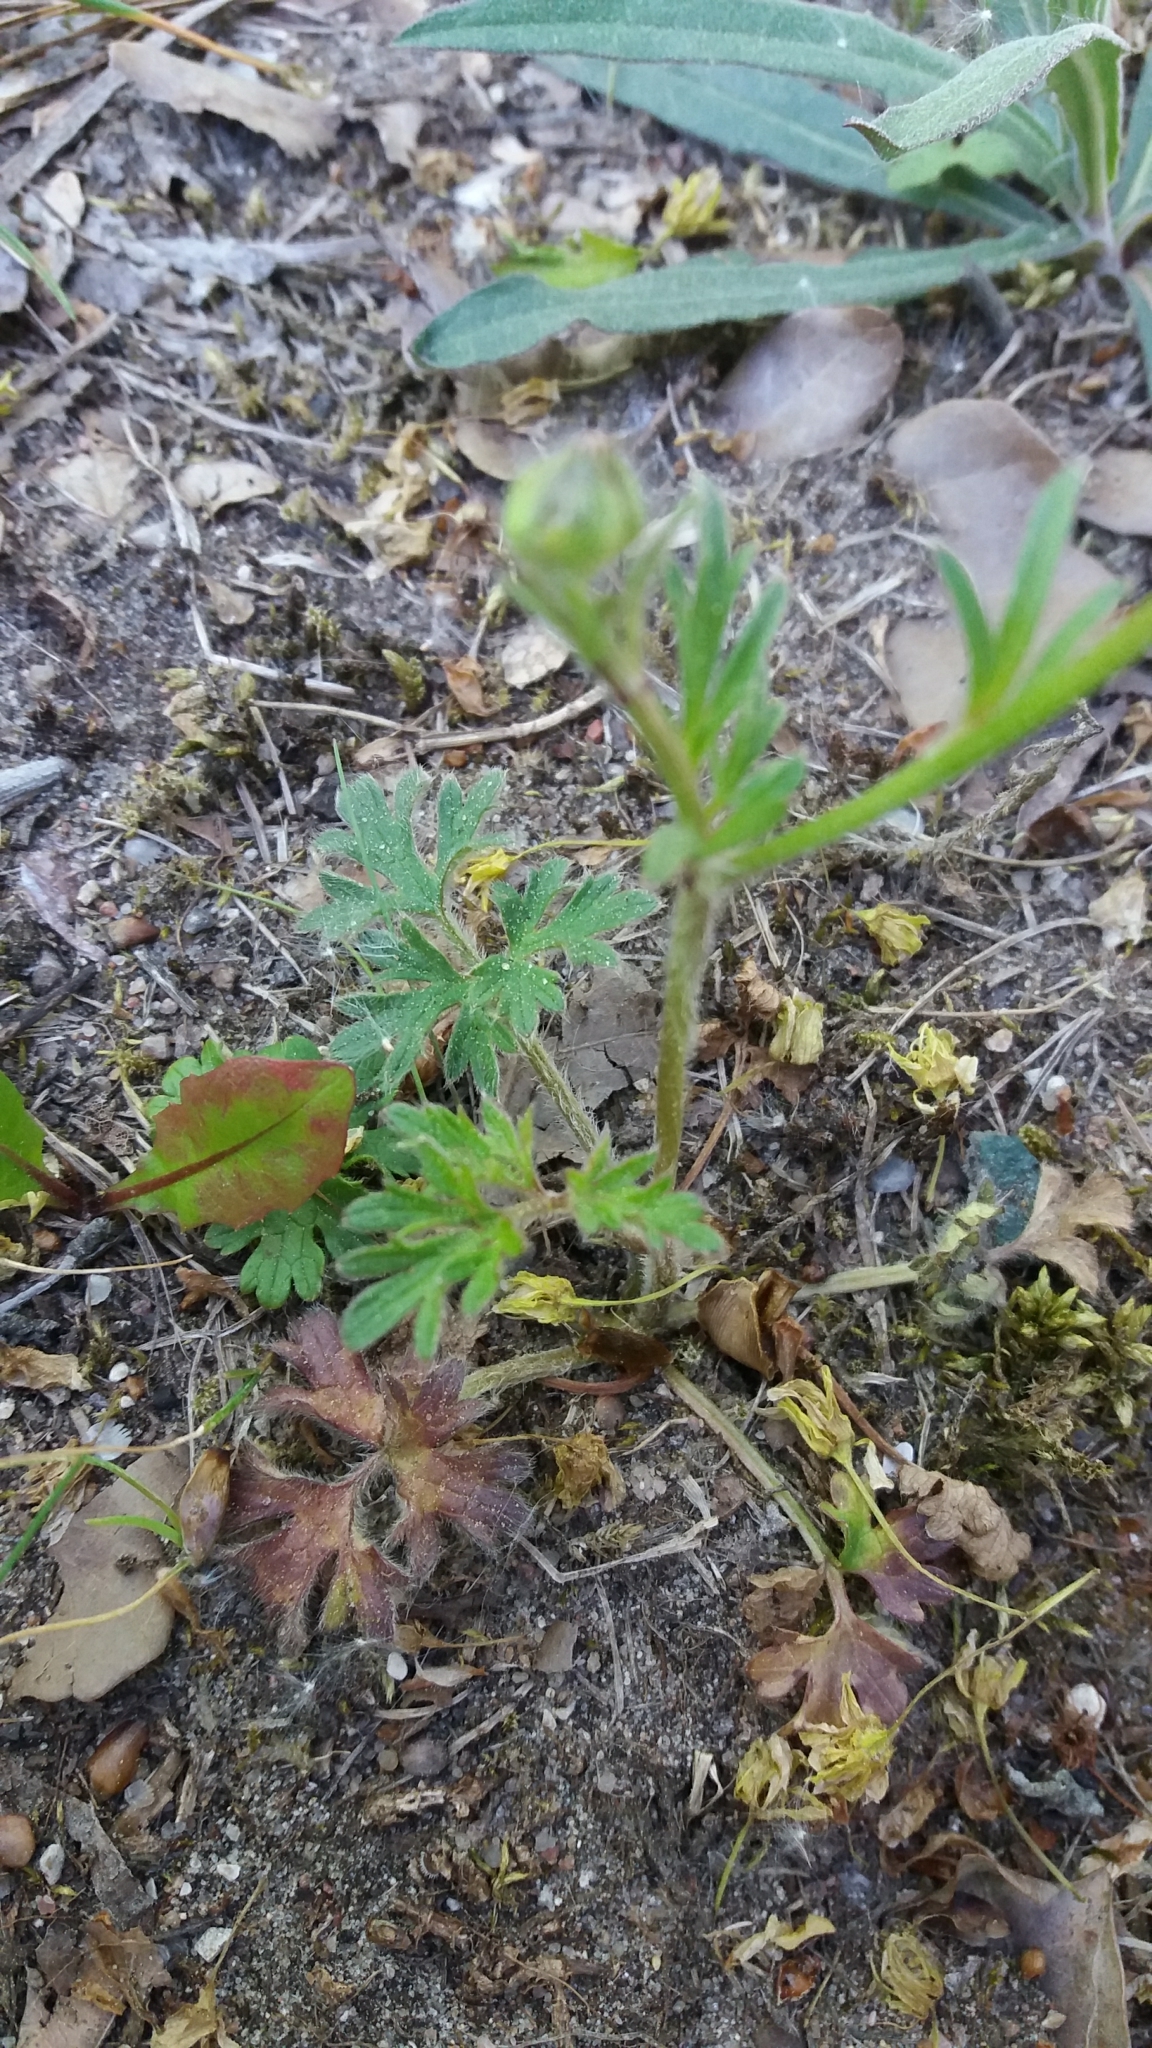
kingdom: Plantae
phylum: Tracheophyta
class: Magnoliopsida
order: Ranunculales
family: Ranunculaceae
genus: Ranunculus
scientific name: Ranunculus bulbosus
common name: Bulbous buttercup
